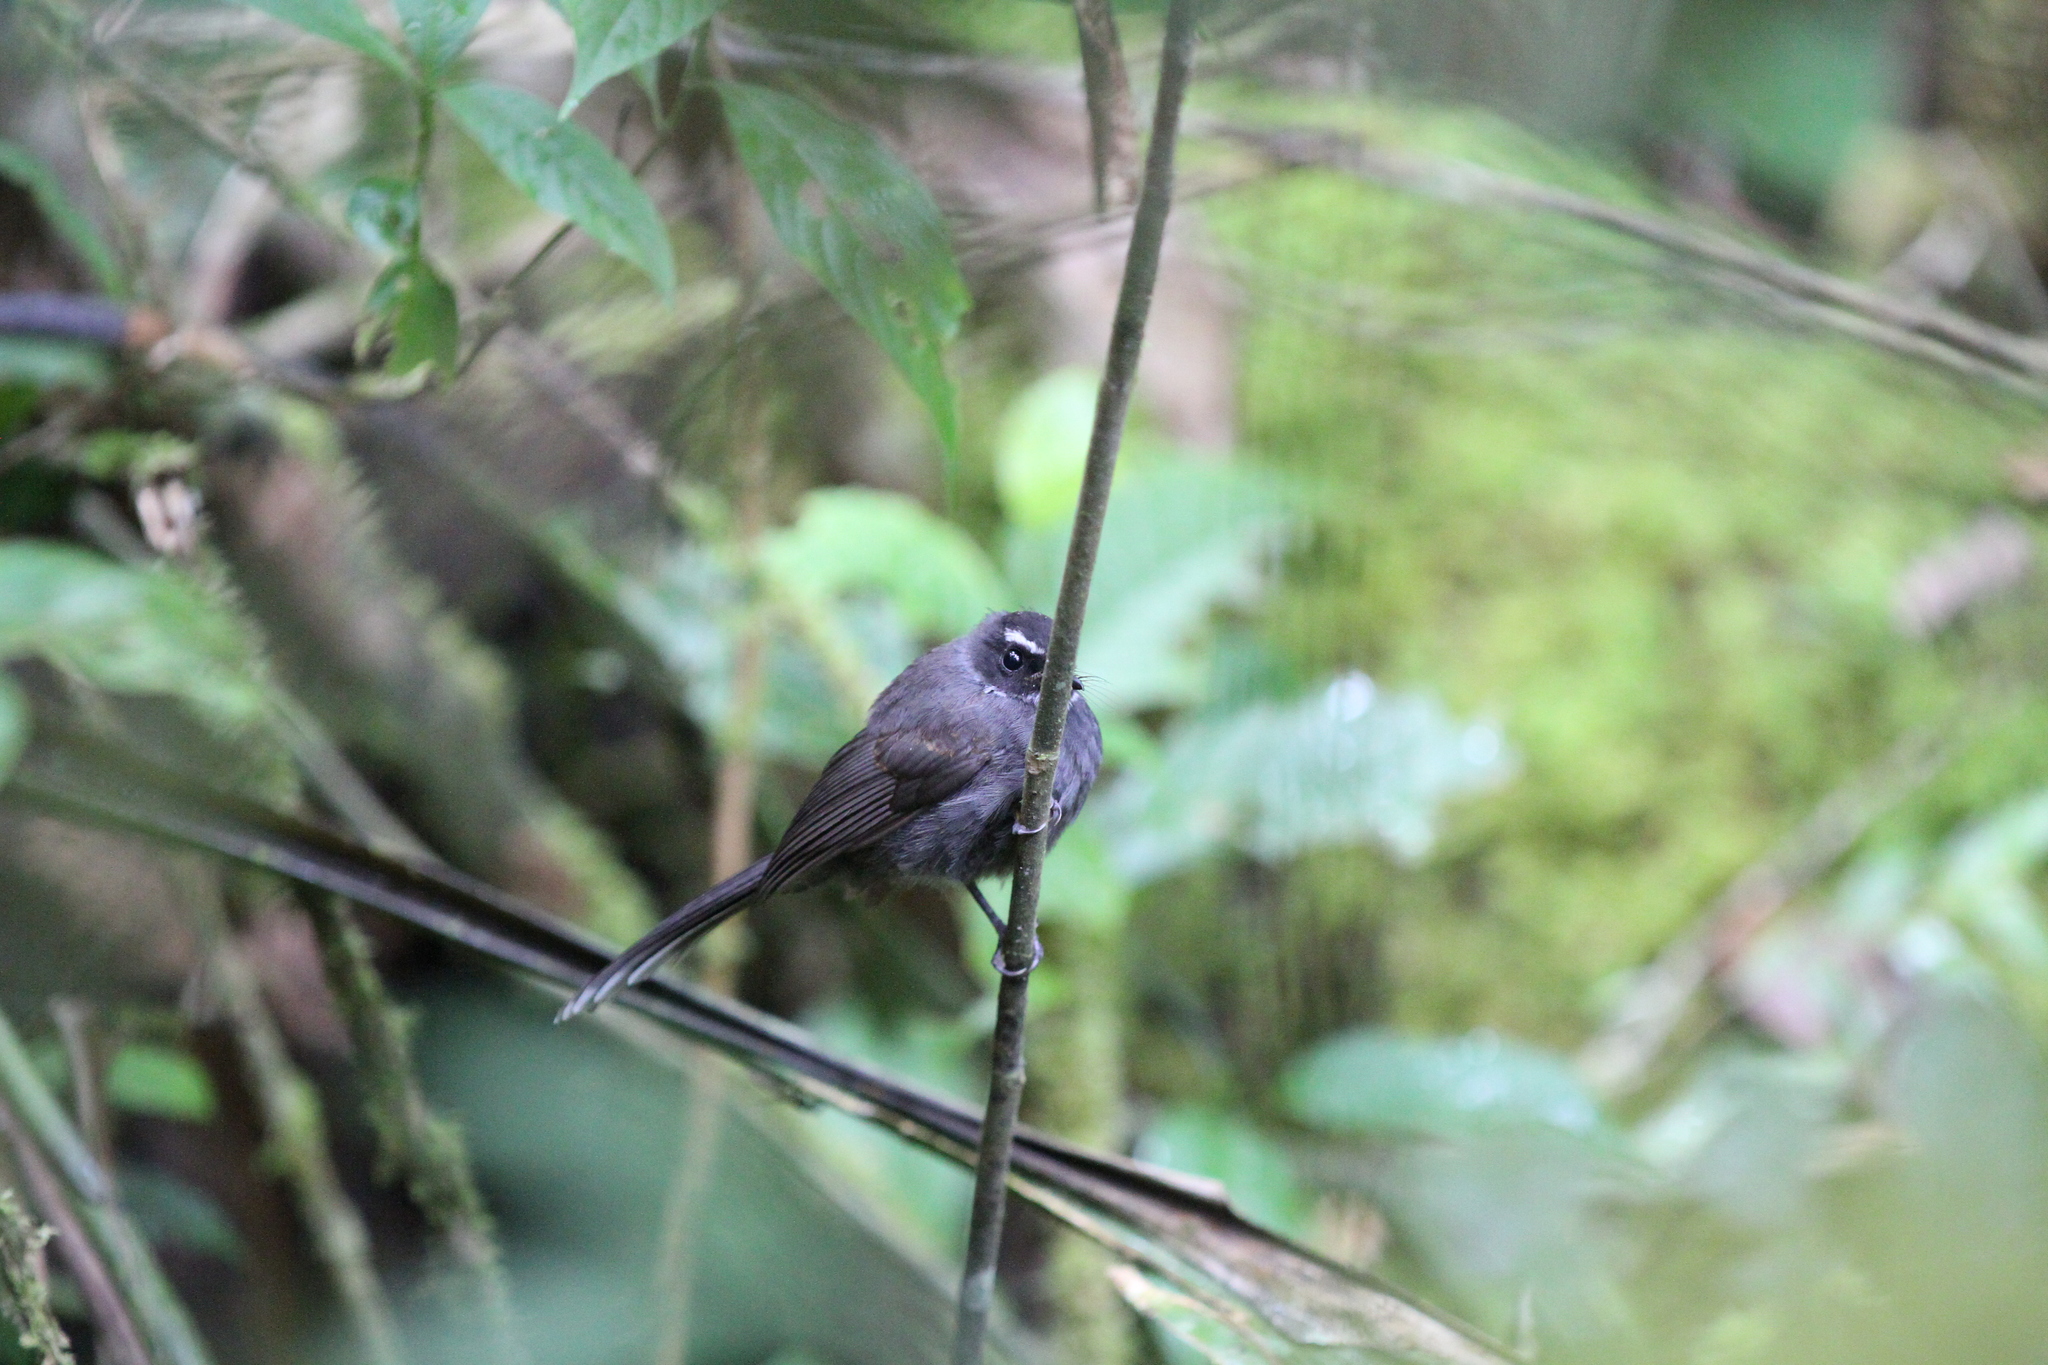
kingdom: Animalia
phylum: Chordata
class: Aves
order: Passeriformes
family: Rhipiduridae
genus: Rhipidura
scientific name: Rhipidura albicollis
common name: White-throated fantail
